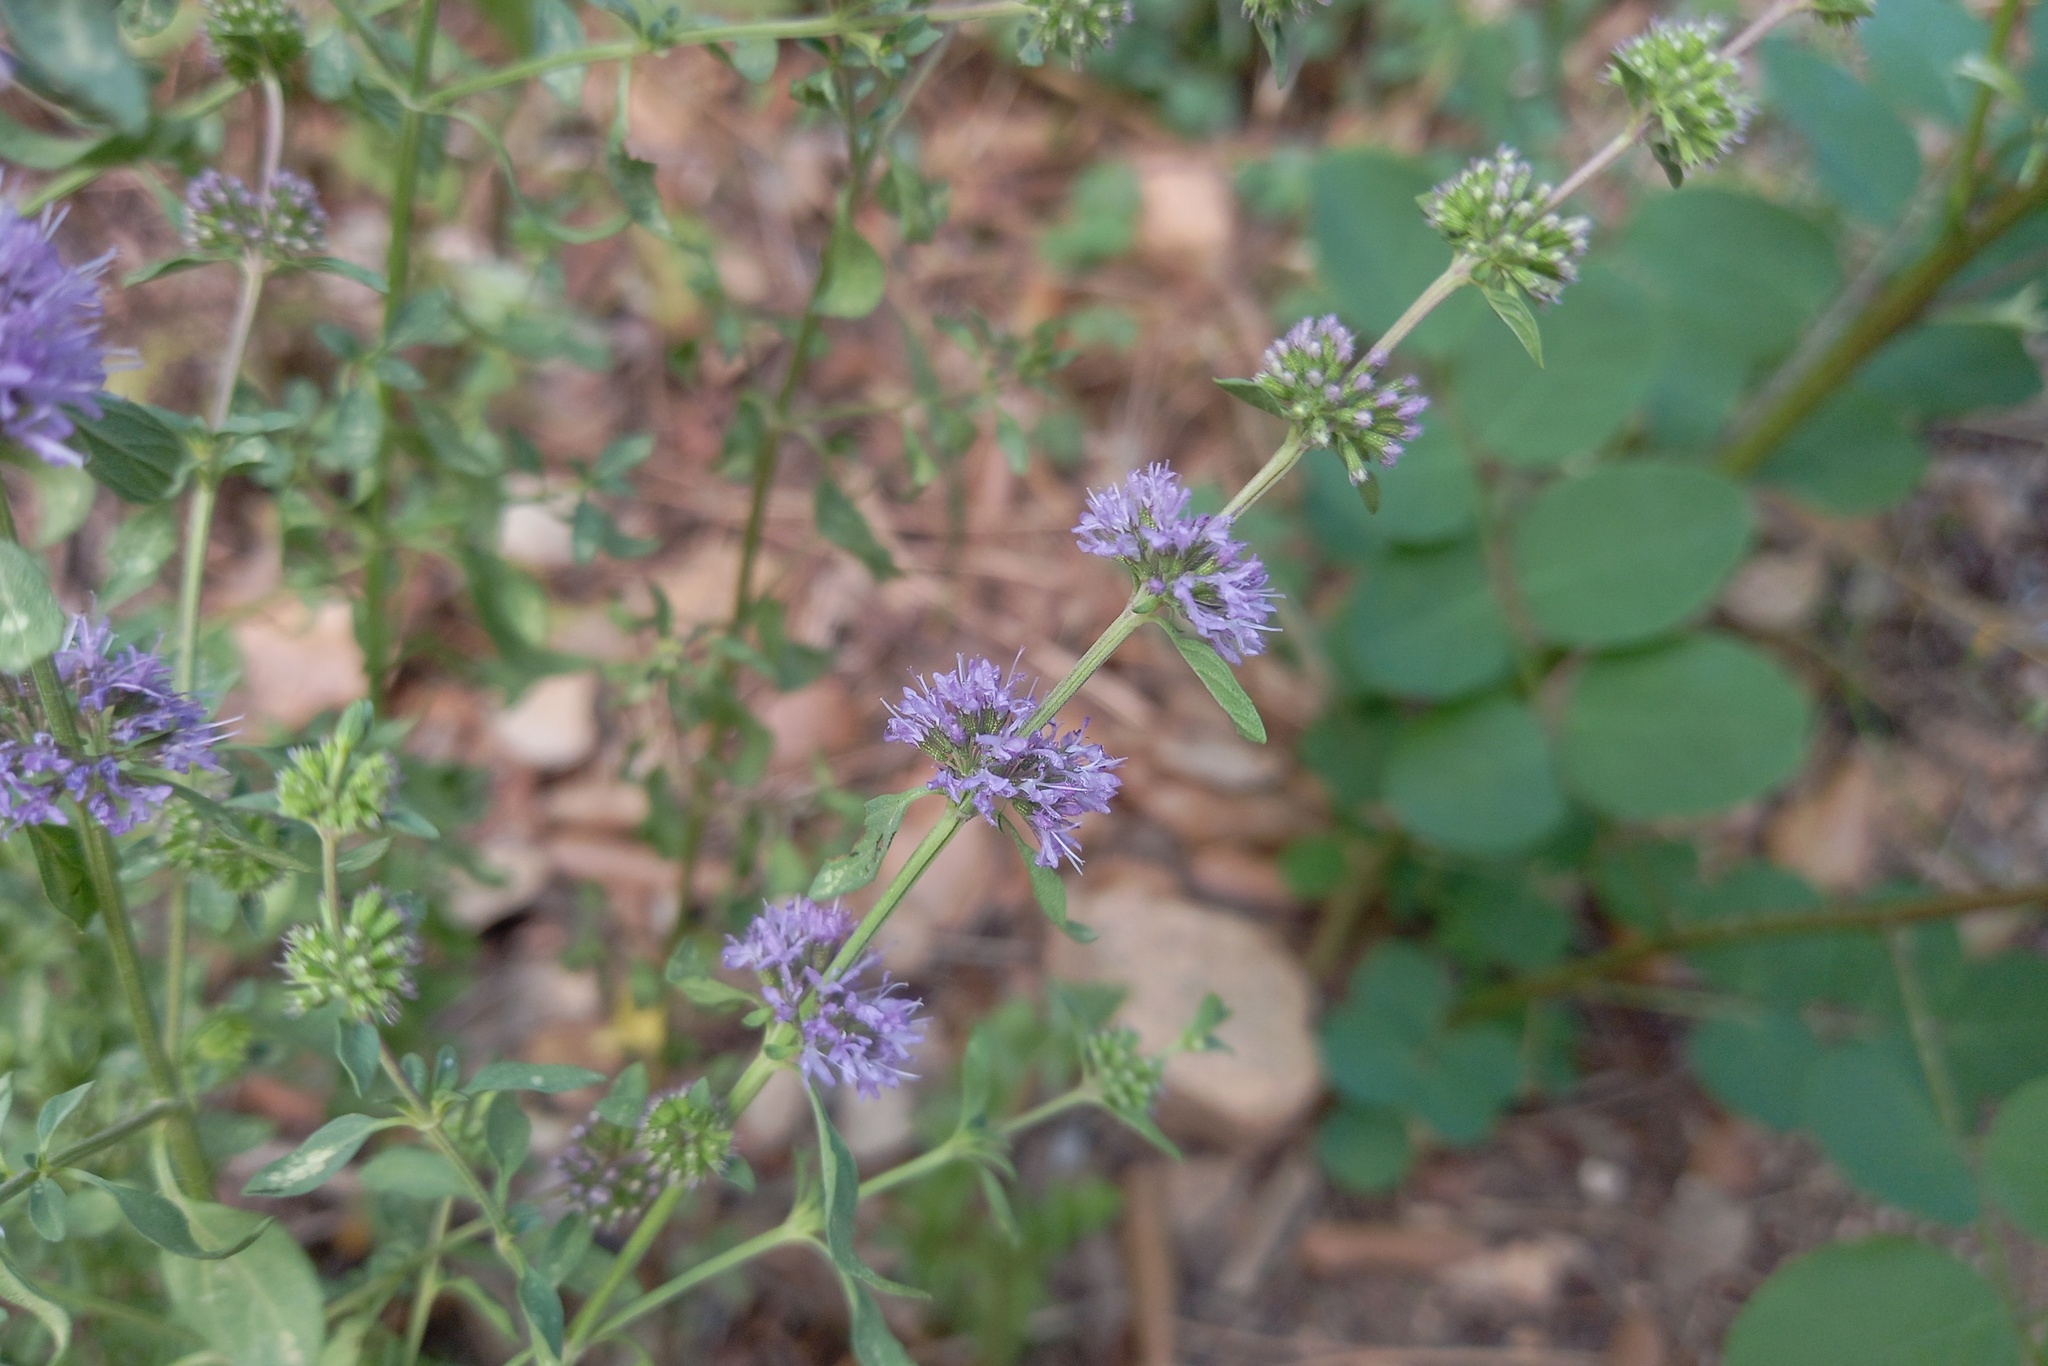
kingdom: Plantae
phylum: Tracheophyta
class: Magnoliopsida
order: Lamiales
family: Lamiaceae
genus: Mentha
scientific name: Mentha pulegium
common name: Pennyroyal
